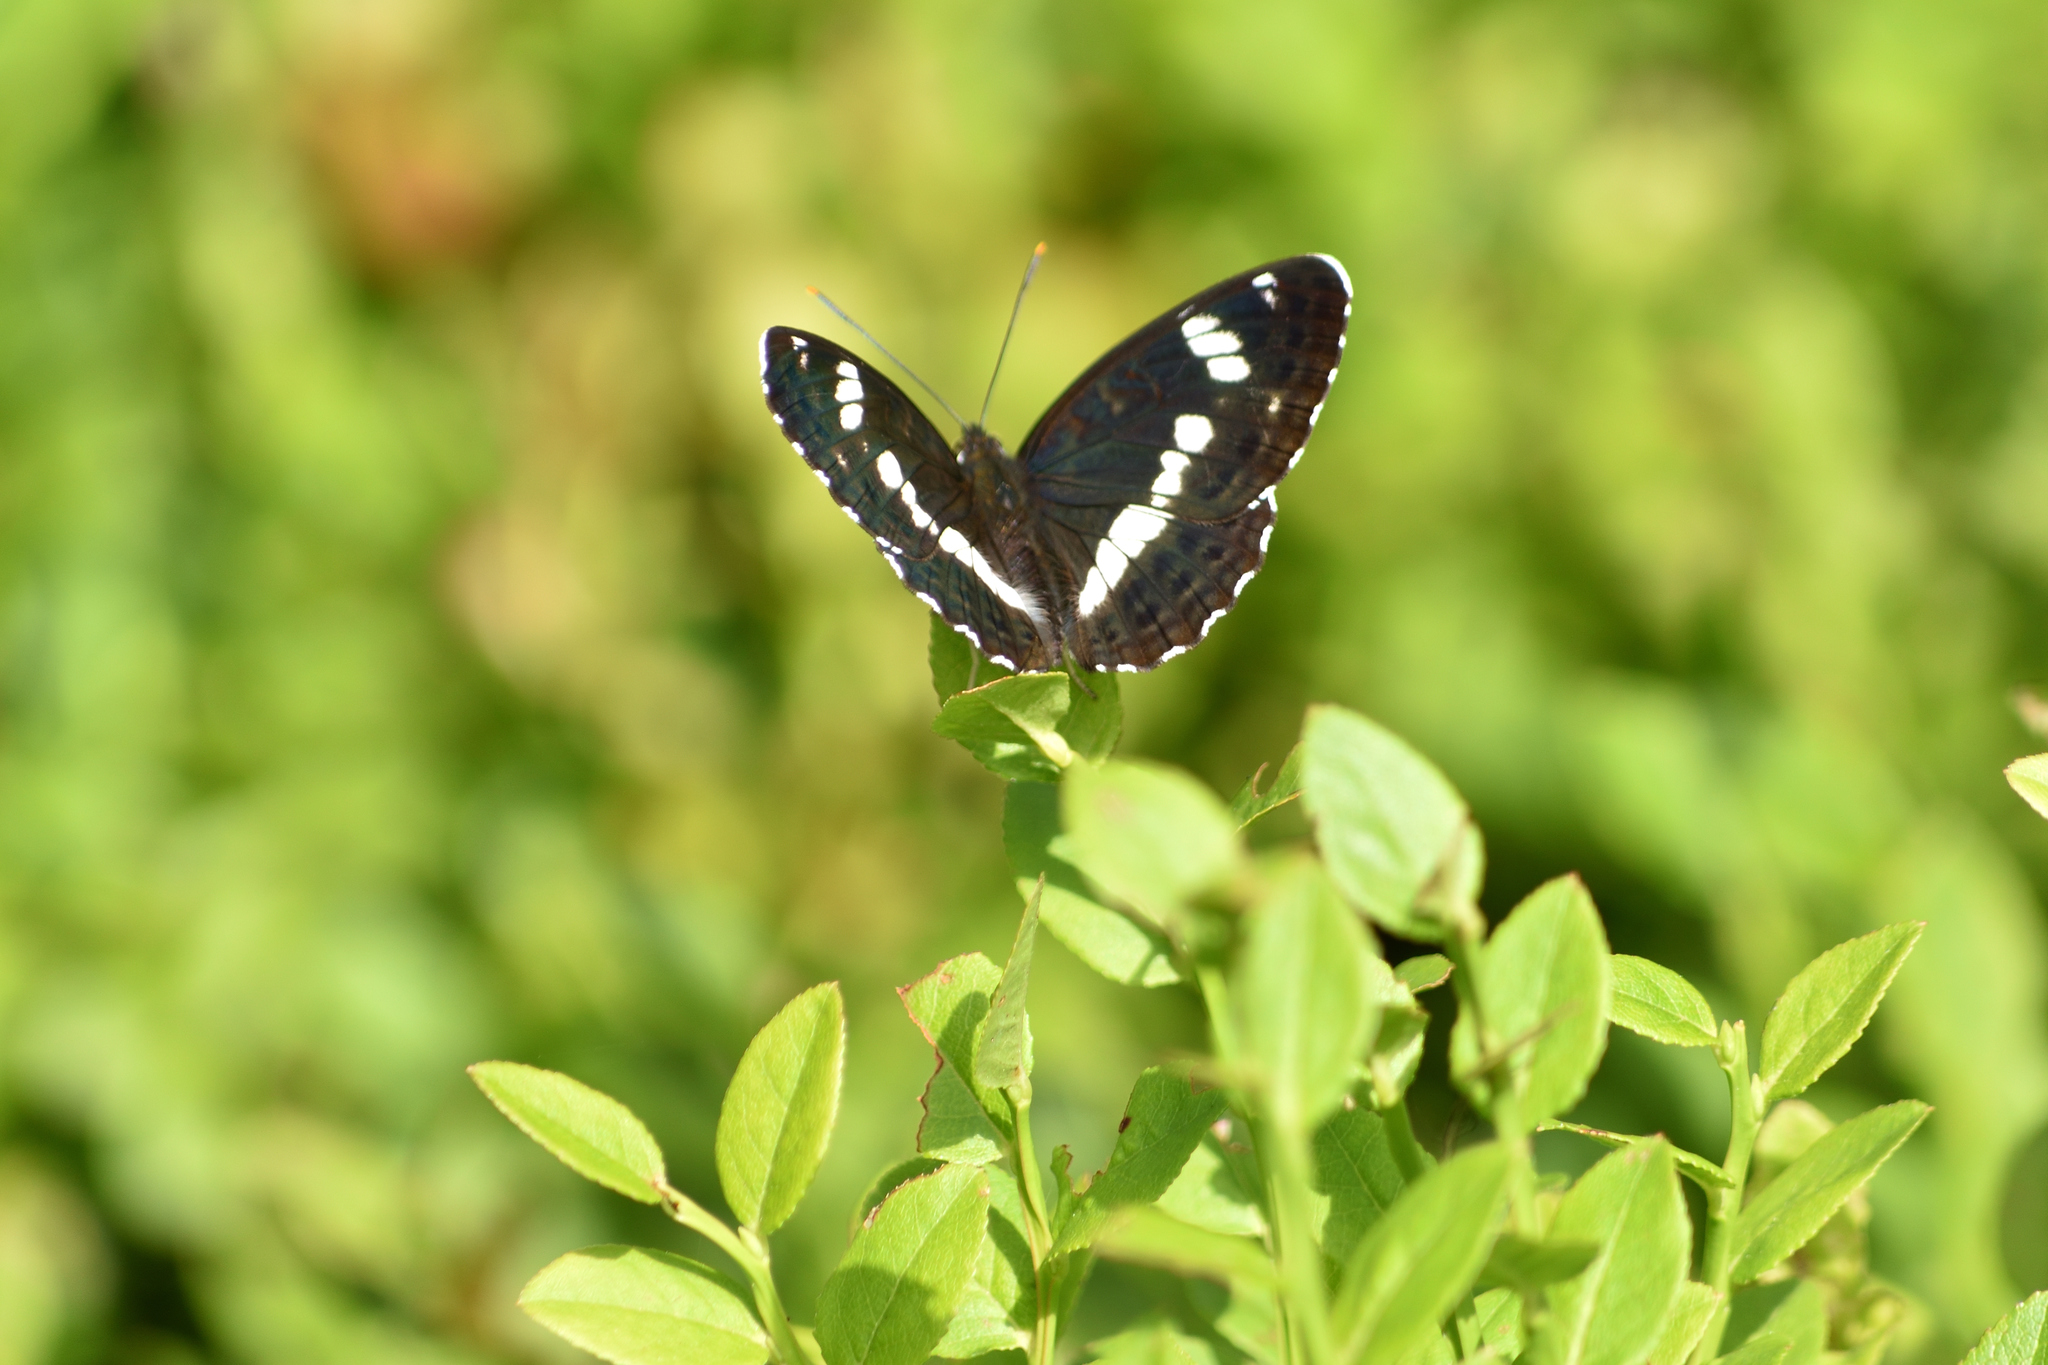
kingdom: Animalia
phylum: Arthropoda
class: Insecta
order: Lepidoptera
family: Nymphalidae
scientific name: Nymphalidae
